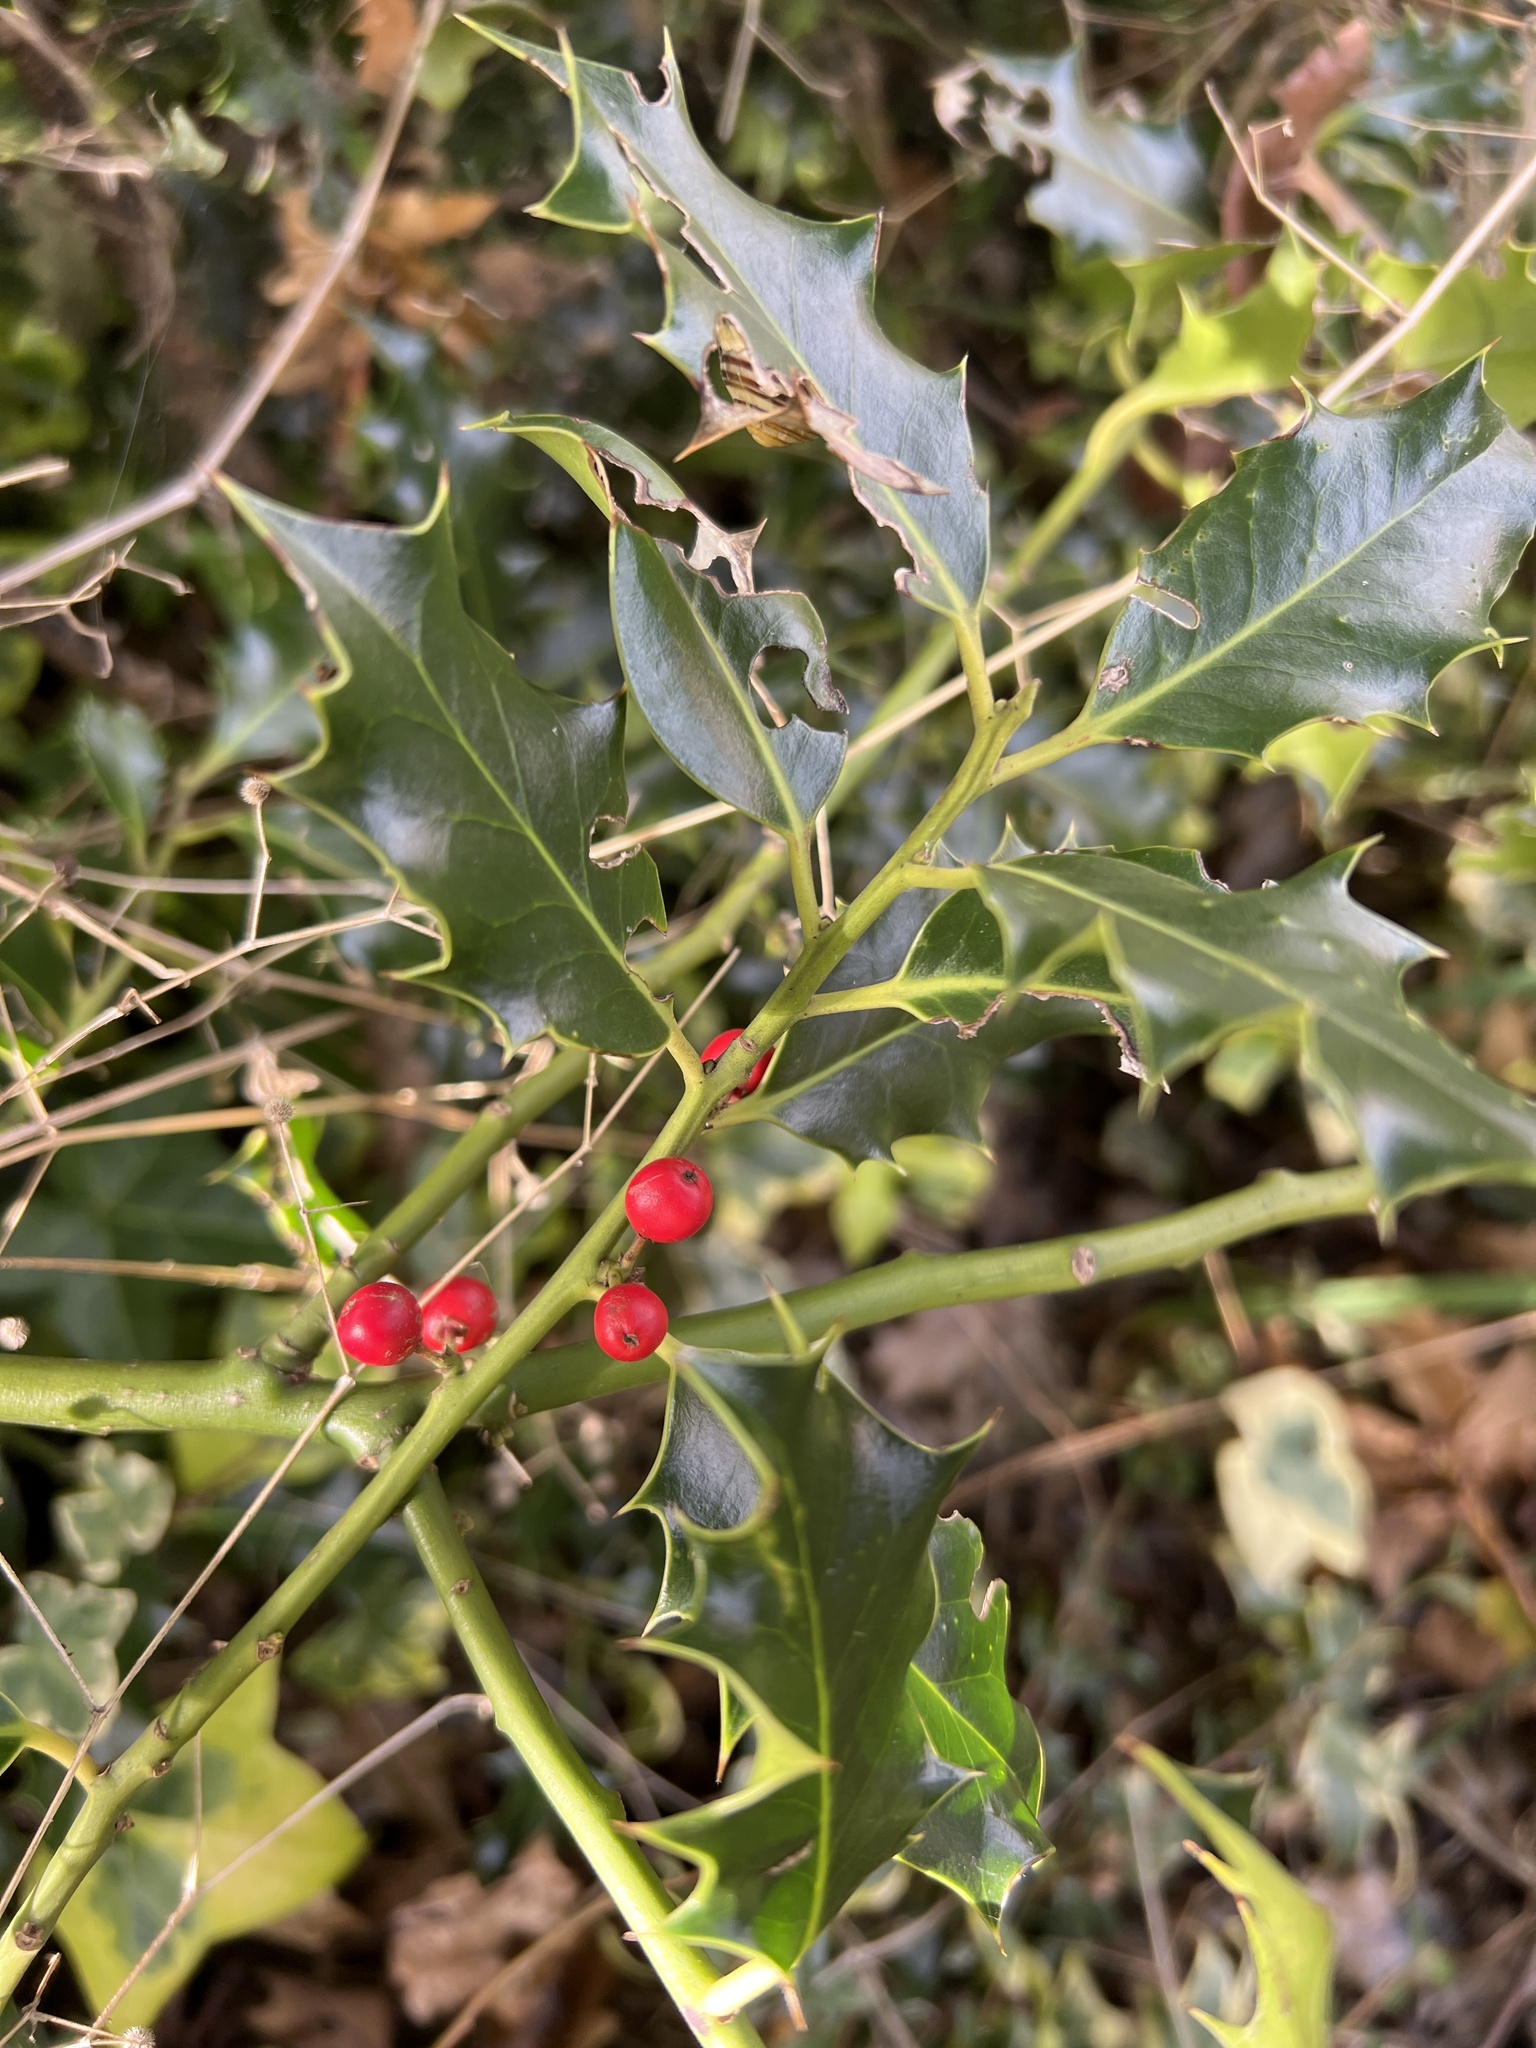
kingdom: Plantae
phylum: Tracheophyta
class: Magnoliopsida
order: Aquifoliales
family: Aquifoliaceae
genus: Ilex
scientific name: Ilex aquifolium
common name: English holly
